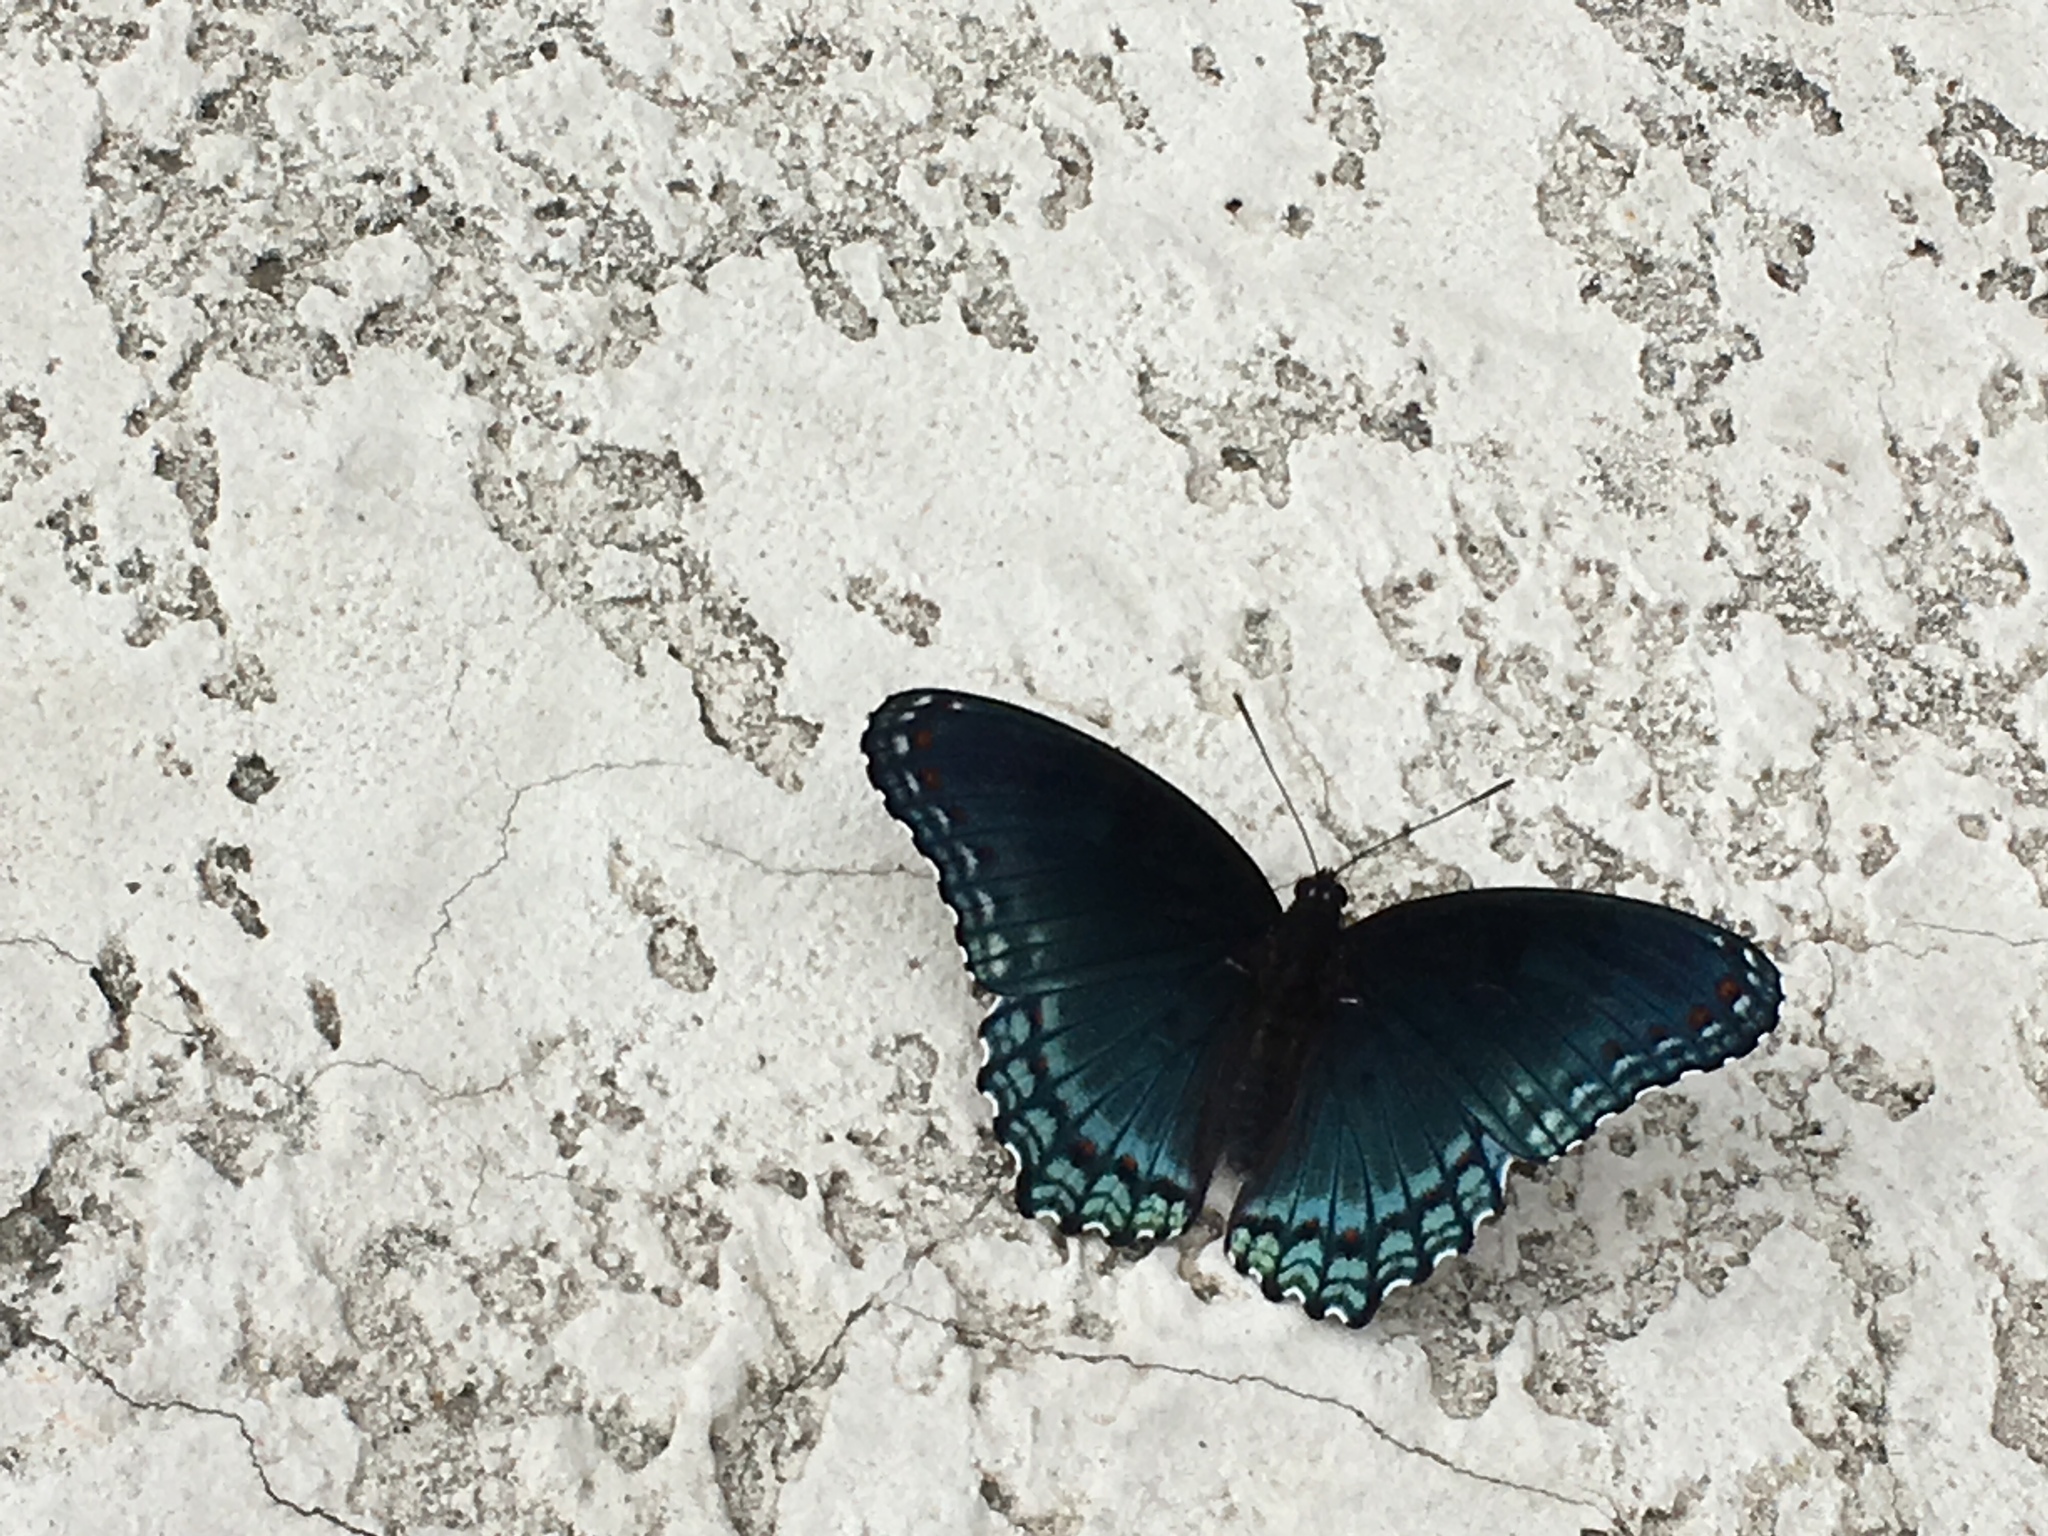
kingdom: Animalia
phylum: Arthropoda
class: Insecta
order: Lepidoptera
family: Nymphalidae
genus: Limenitis
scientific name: Limenitis astyanax
